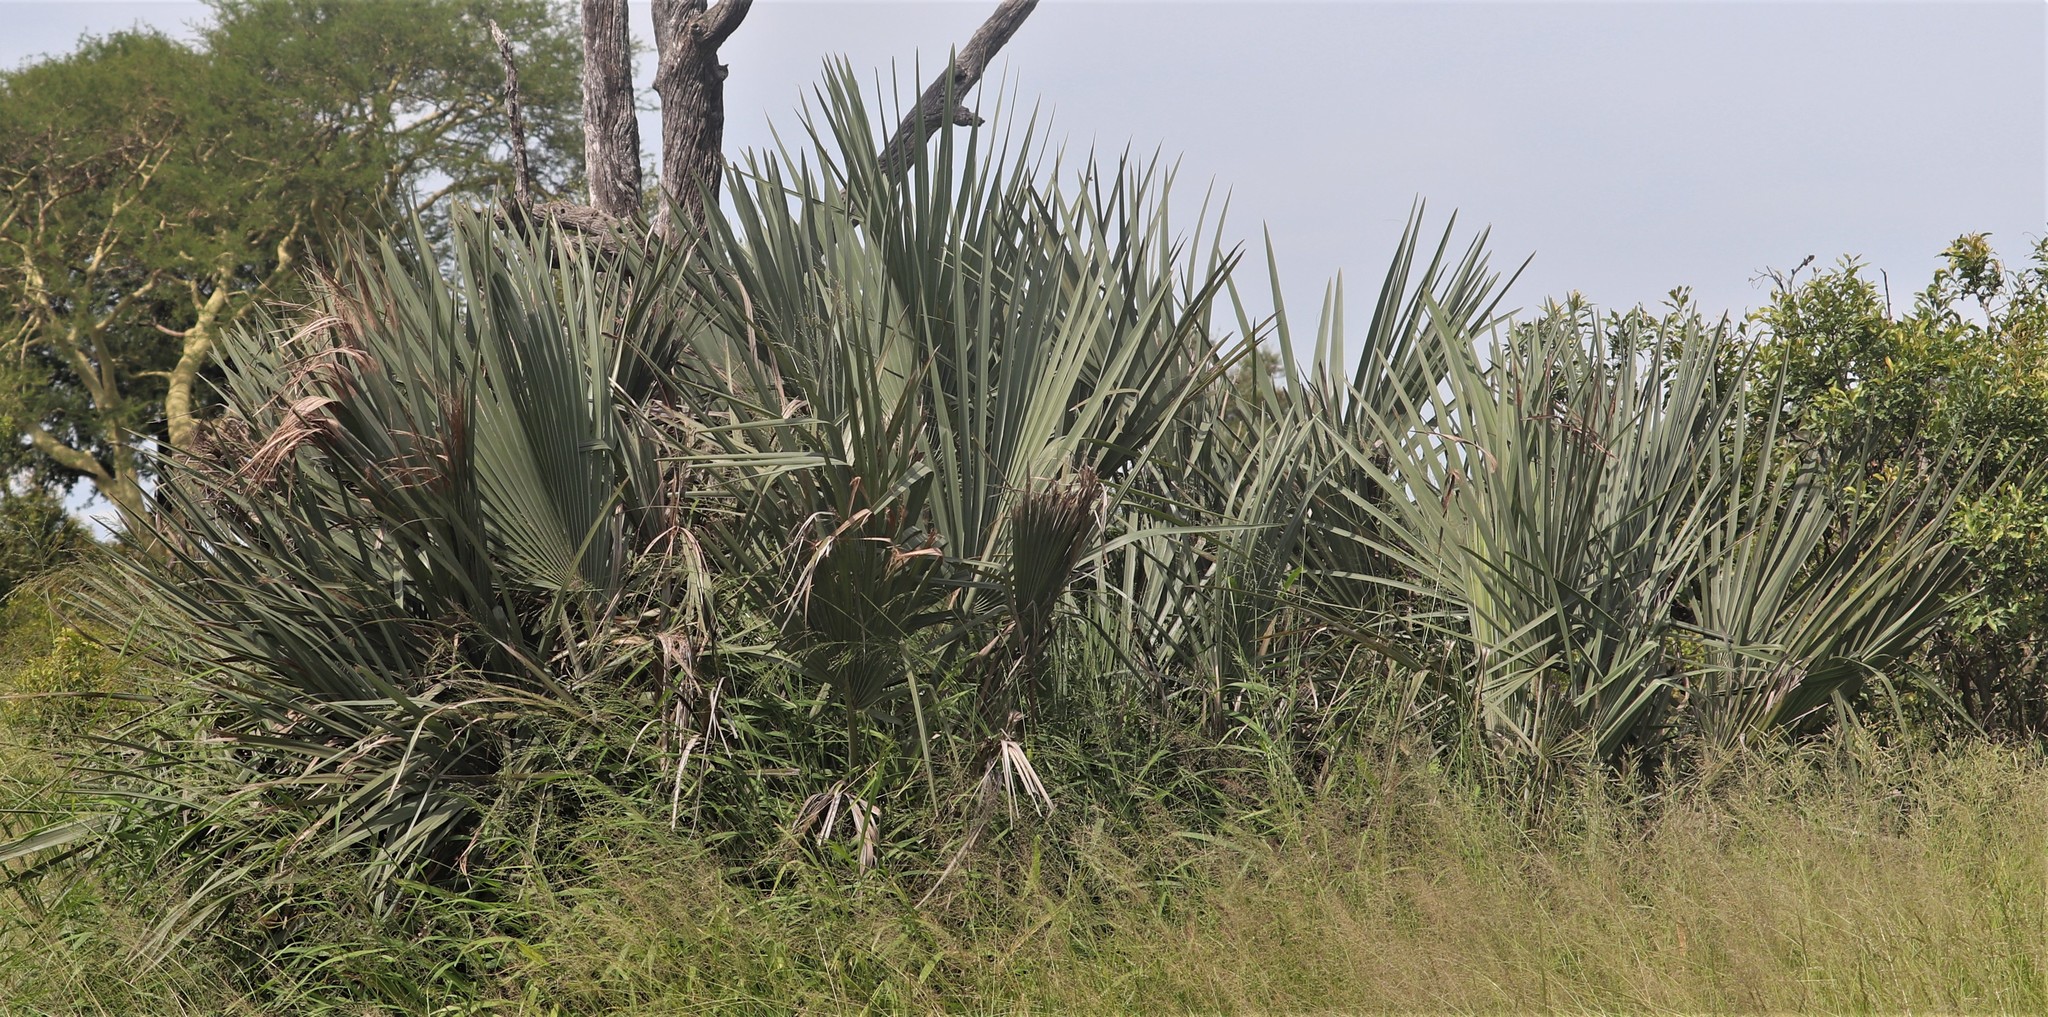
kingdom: Plantae
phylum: Tracheophyta
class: Liliopsida
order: Arecales
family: Arecaceae
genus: Hyphaene
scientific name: Hyphaene coriacea
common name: Ilala palm
